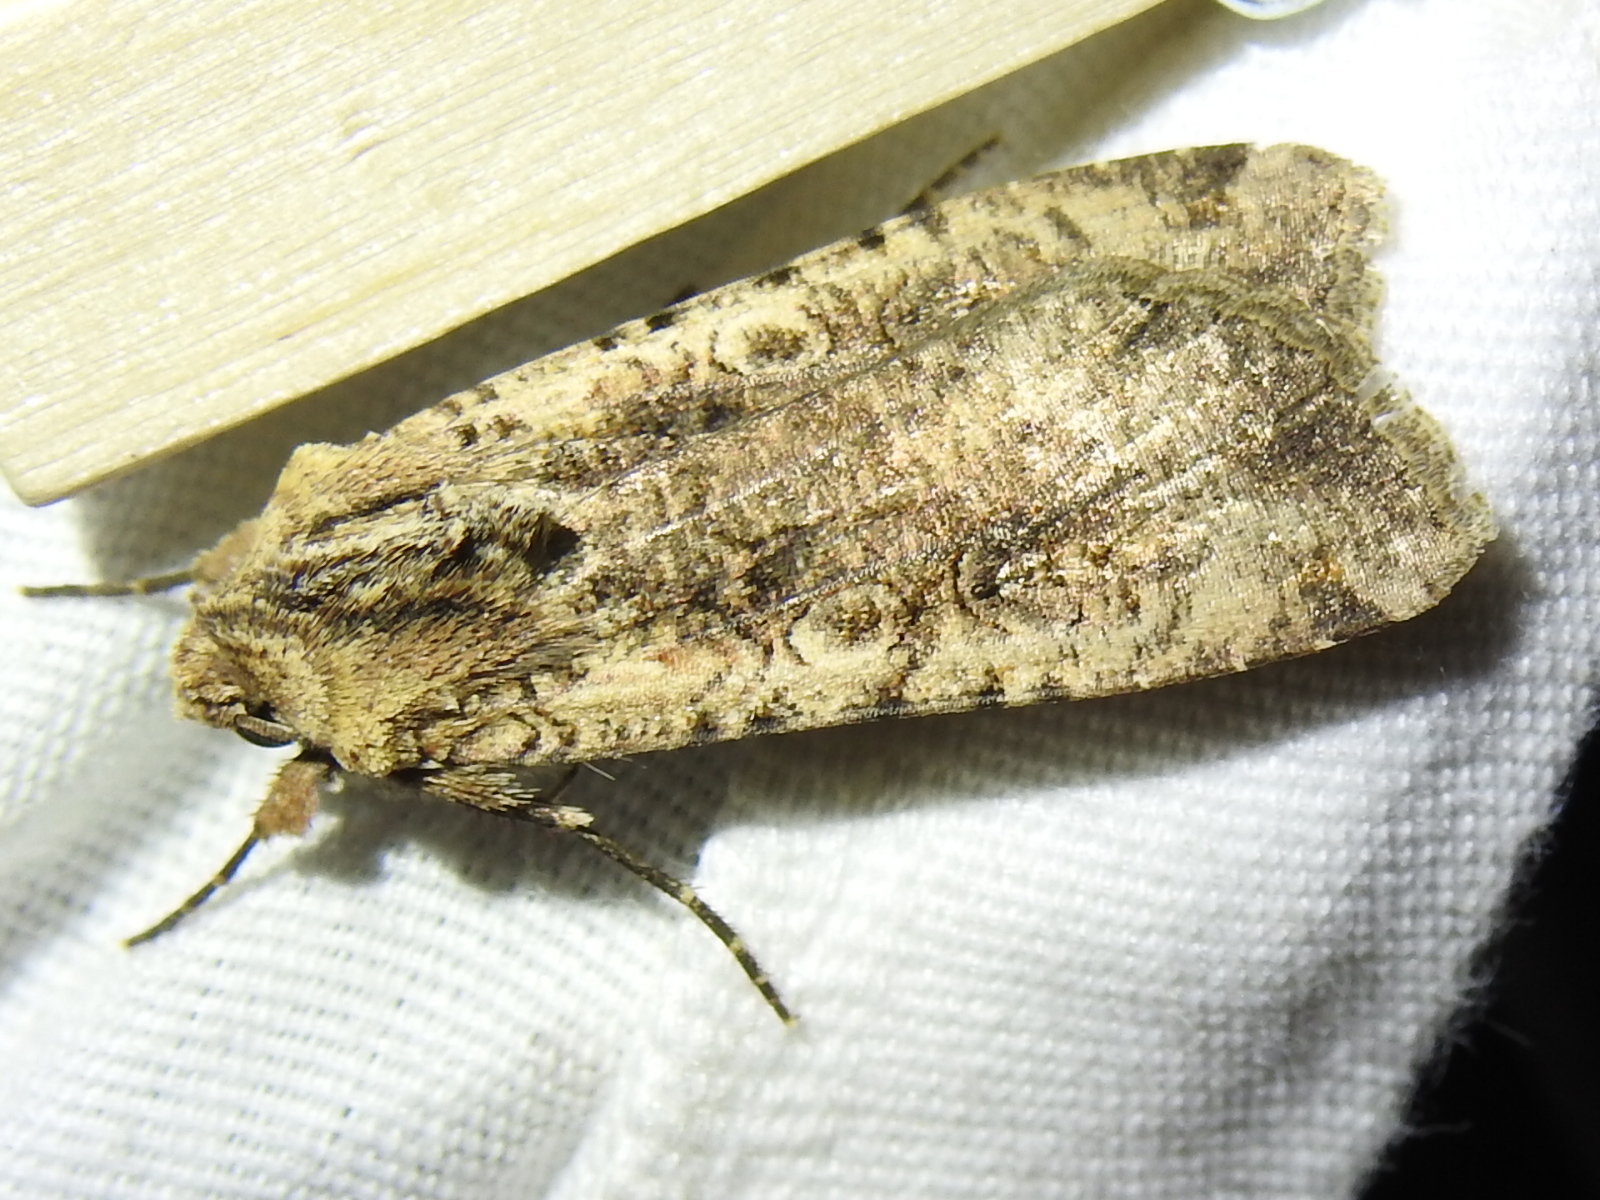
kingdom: Animalia
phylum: Arthropoda
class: Insecta
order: Lepidoptera
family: Noctuidae
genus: Peridroma
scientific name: Peridroma saucia
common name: Pearly underwing
